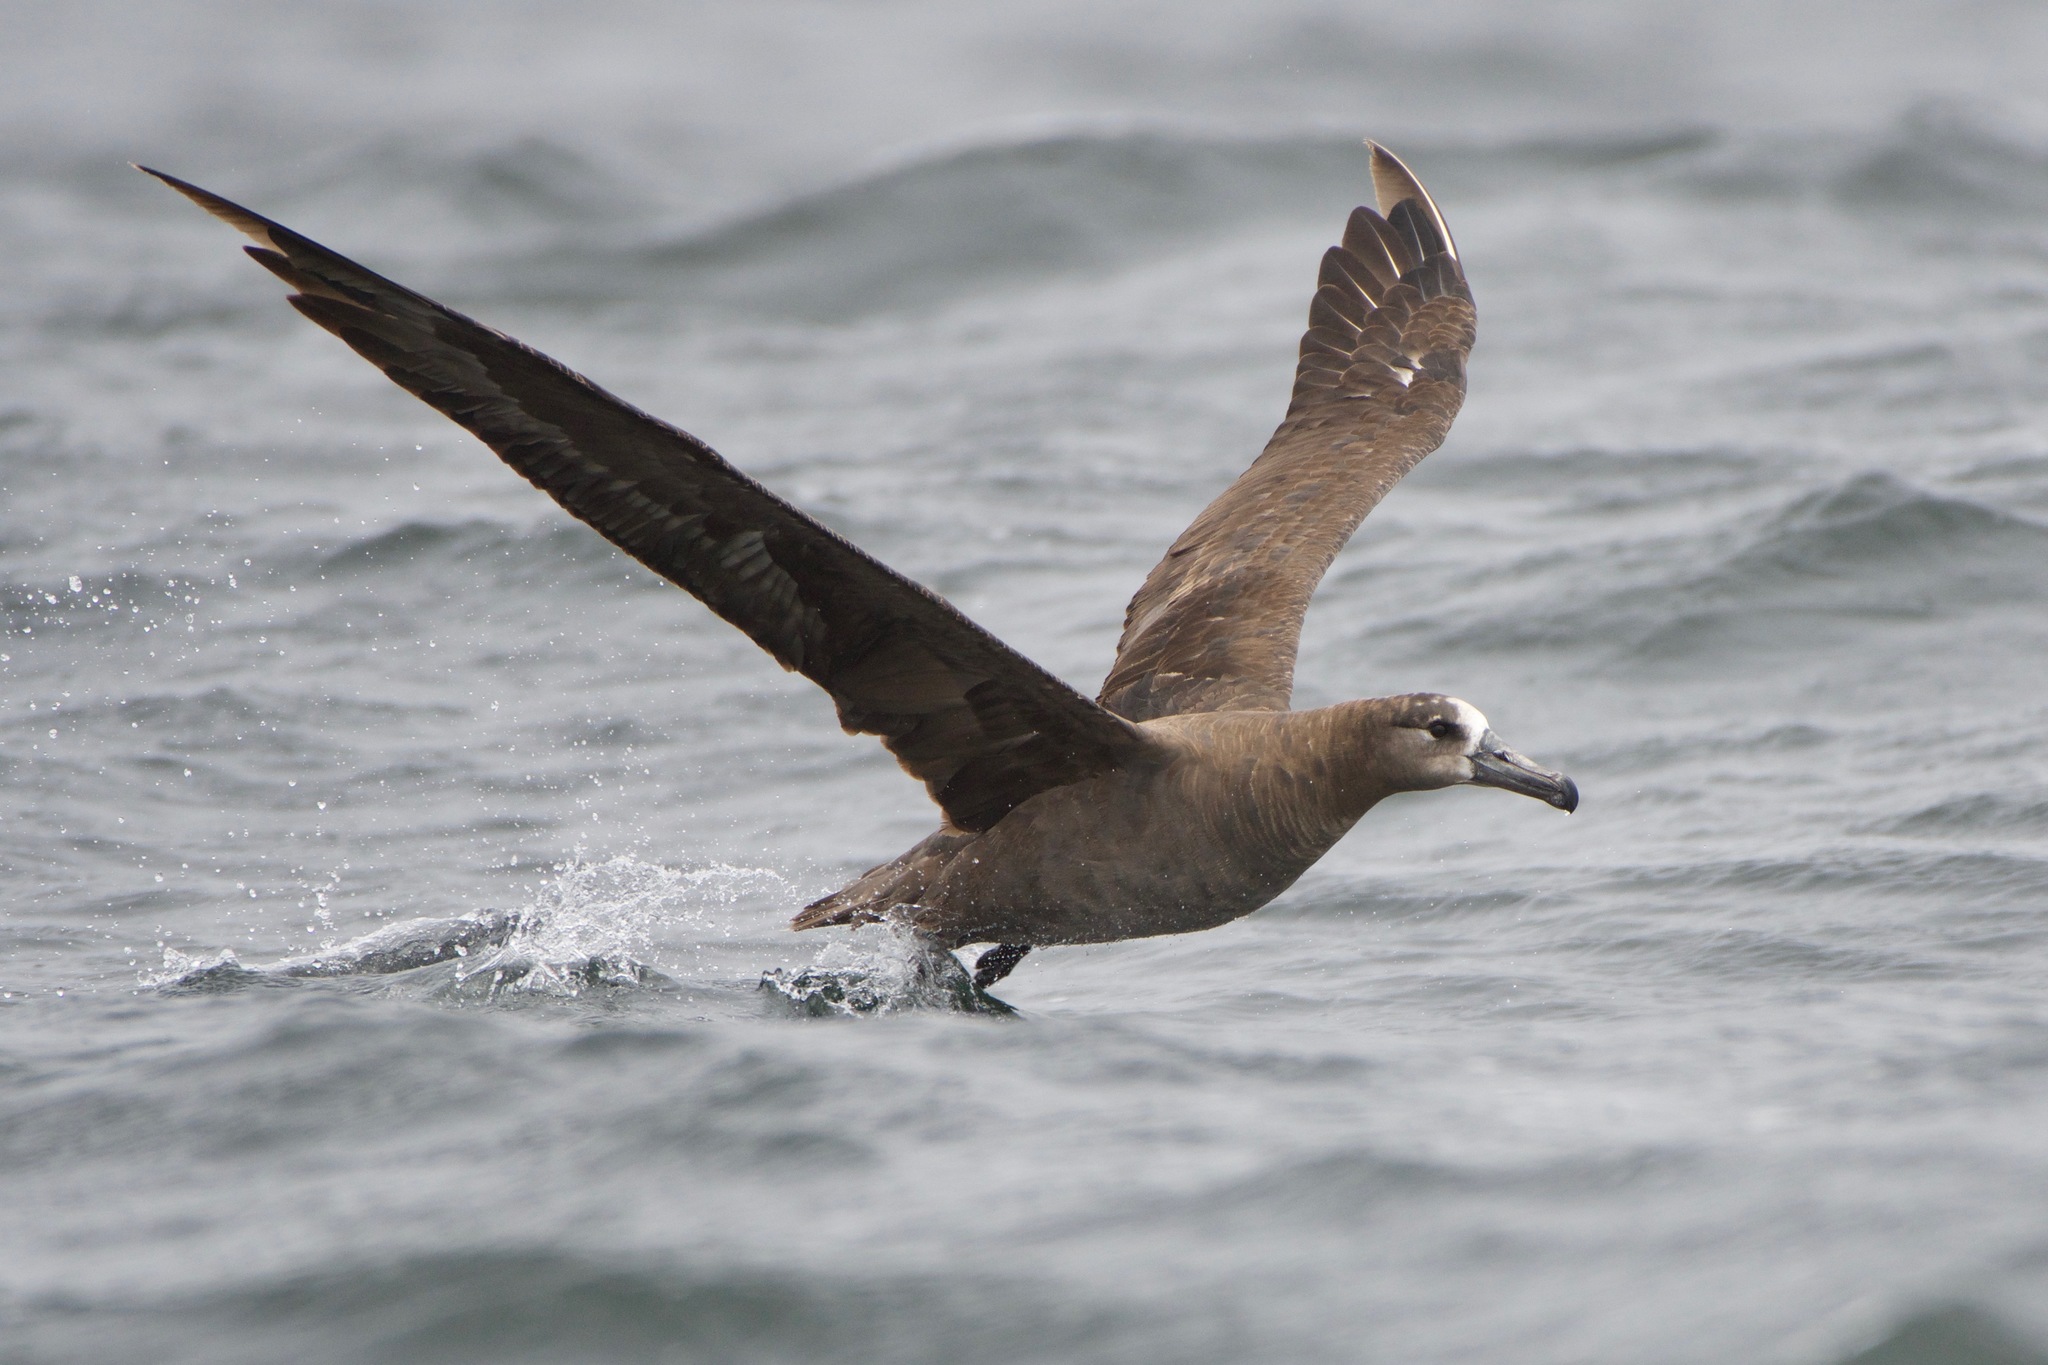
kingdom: Animalia
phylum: Chordata
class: Aves
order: Procellariiformes
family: Diomedeidae
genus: Phoebastria
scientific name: Phoebastria nigripes
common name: Black-footed albatross
